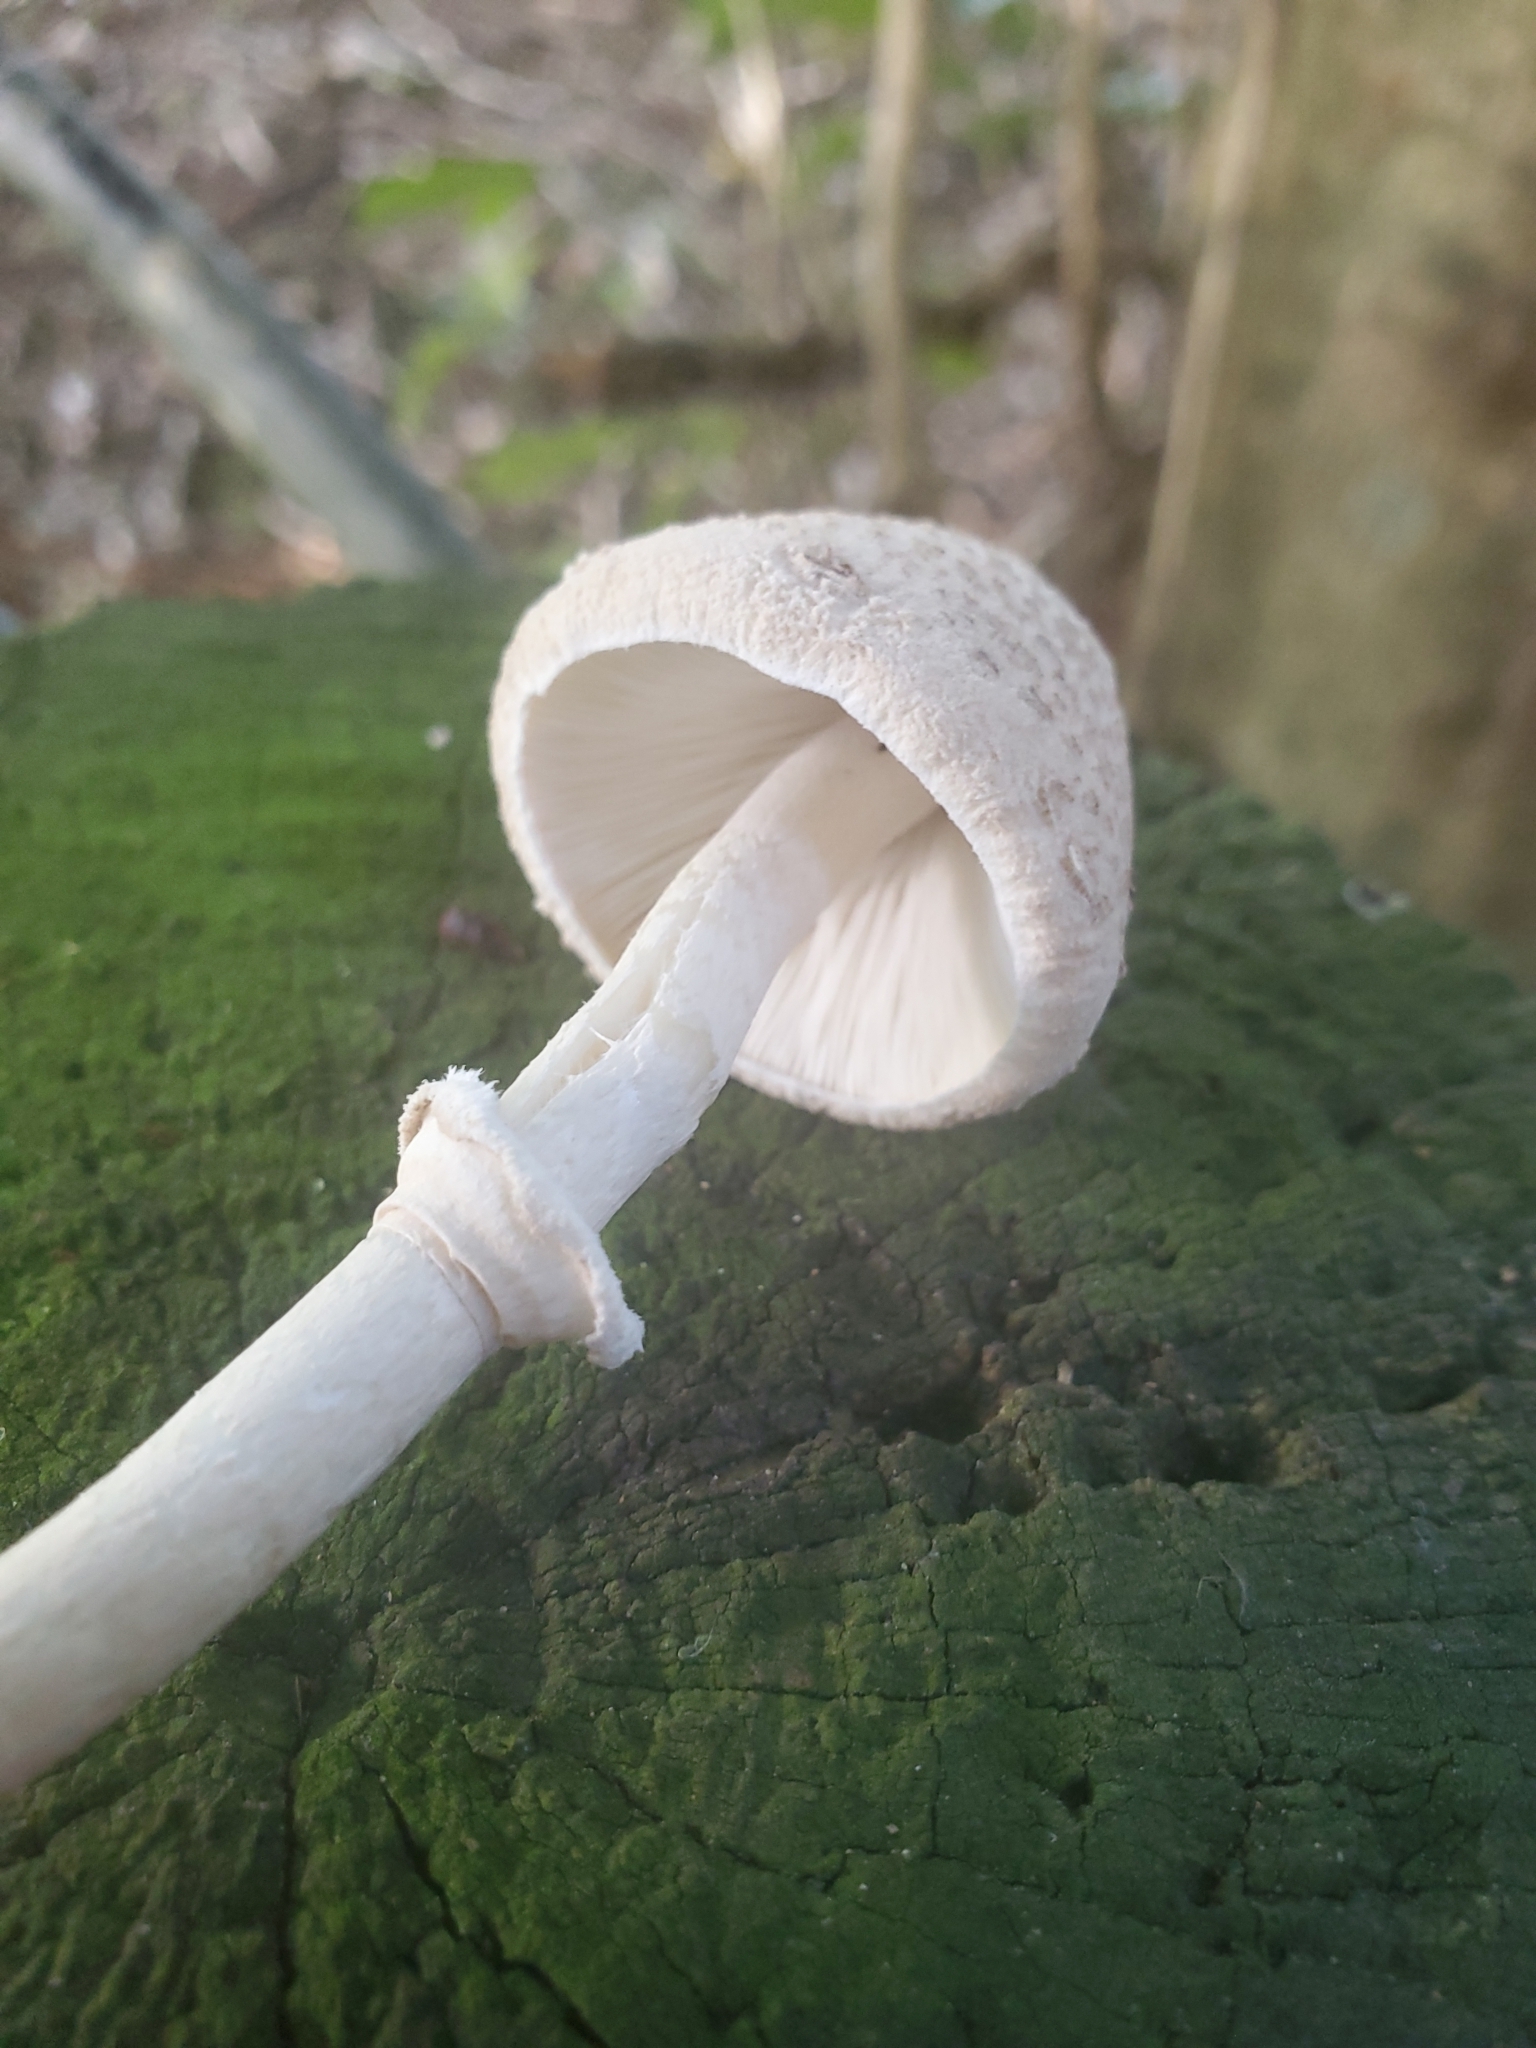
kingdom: Fungi
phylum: Basidiomycota
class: Agaricomycetes
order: Agaricales
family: Agaricaceae
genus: Macrolepiota
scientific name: Macrolepiota clelandii
